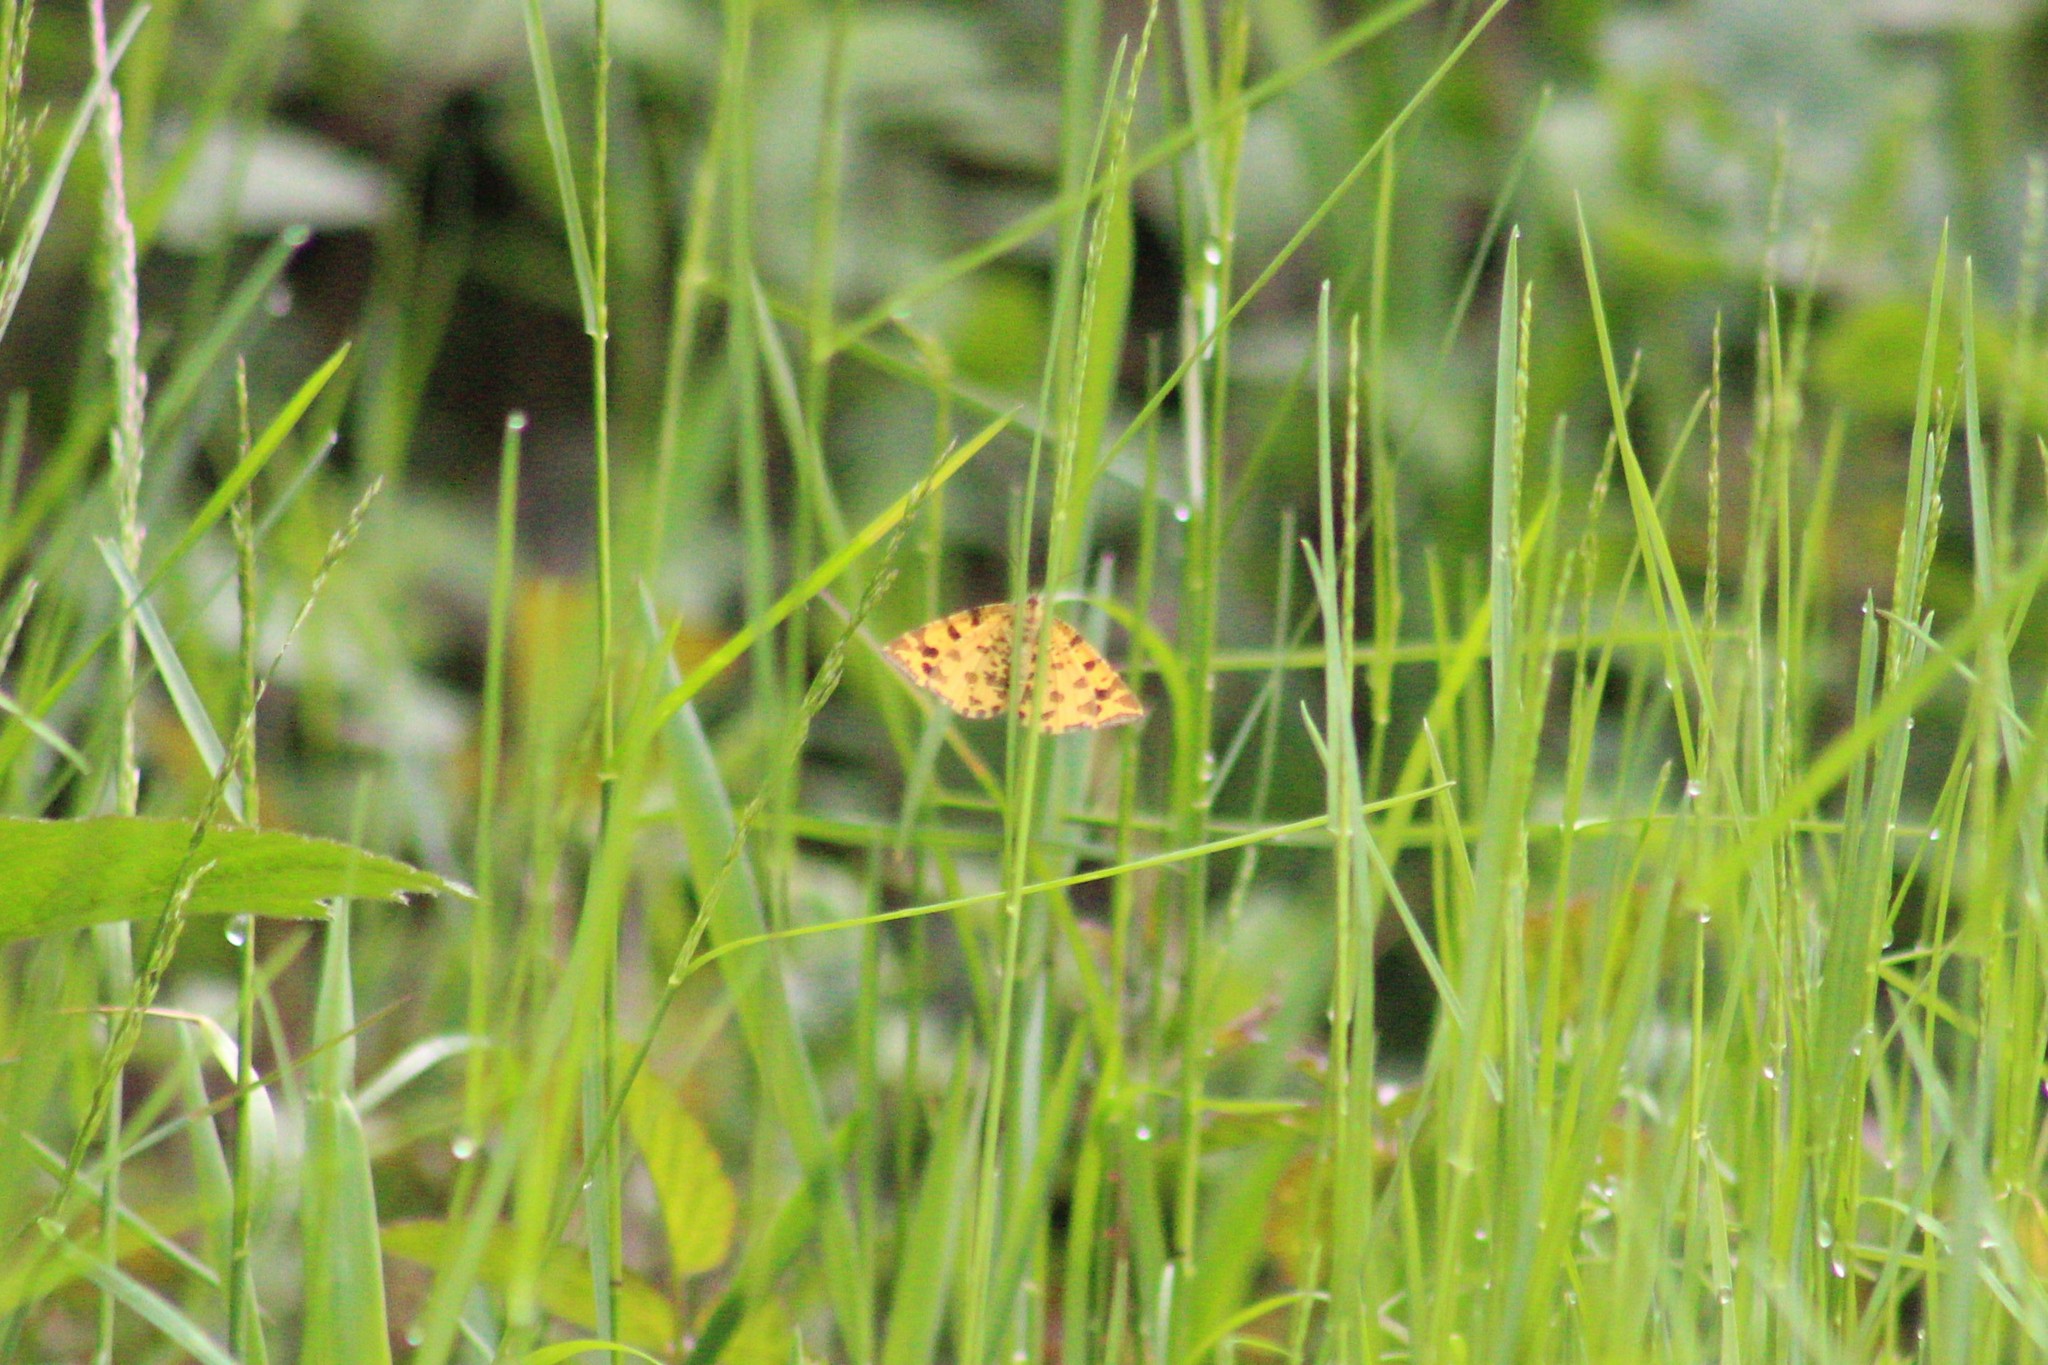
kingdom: Animalia
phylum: Arthropoda
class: Insecta
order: Lepidoptera
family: Geometridae
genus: Pseudopanthera
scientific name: Pseudopanthera macularia
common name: Speckled yellow
